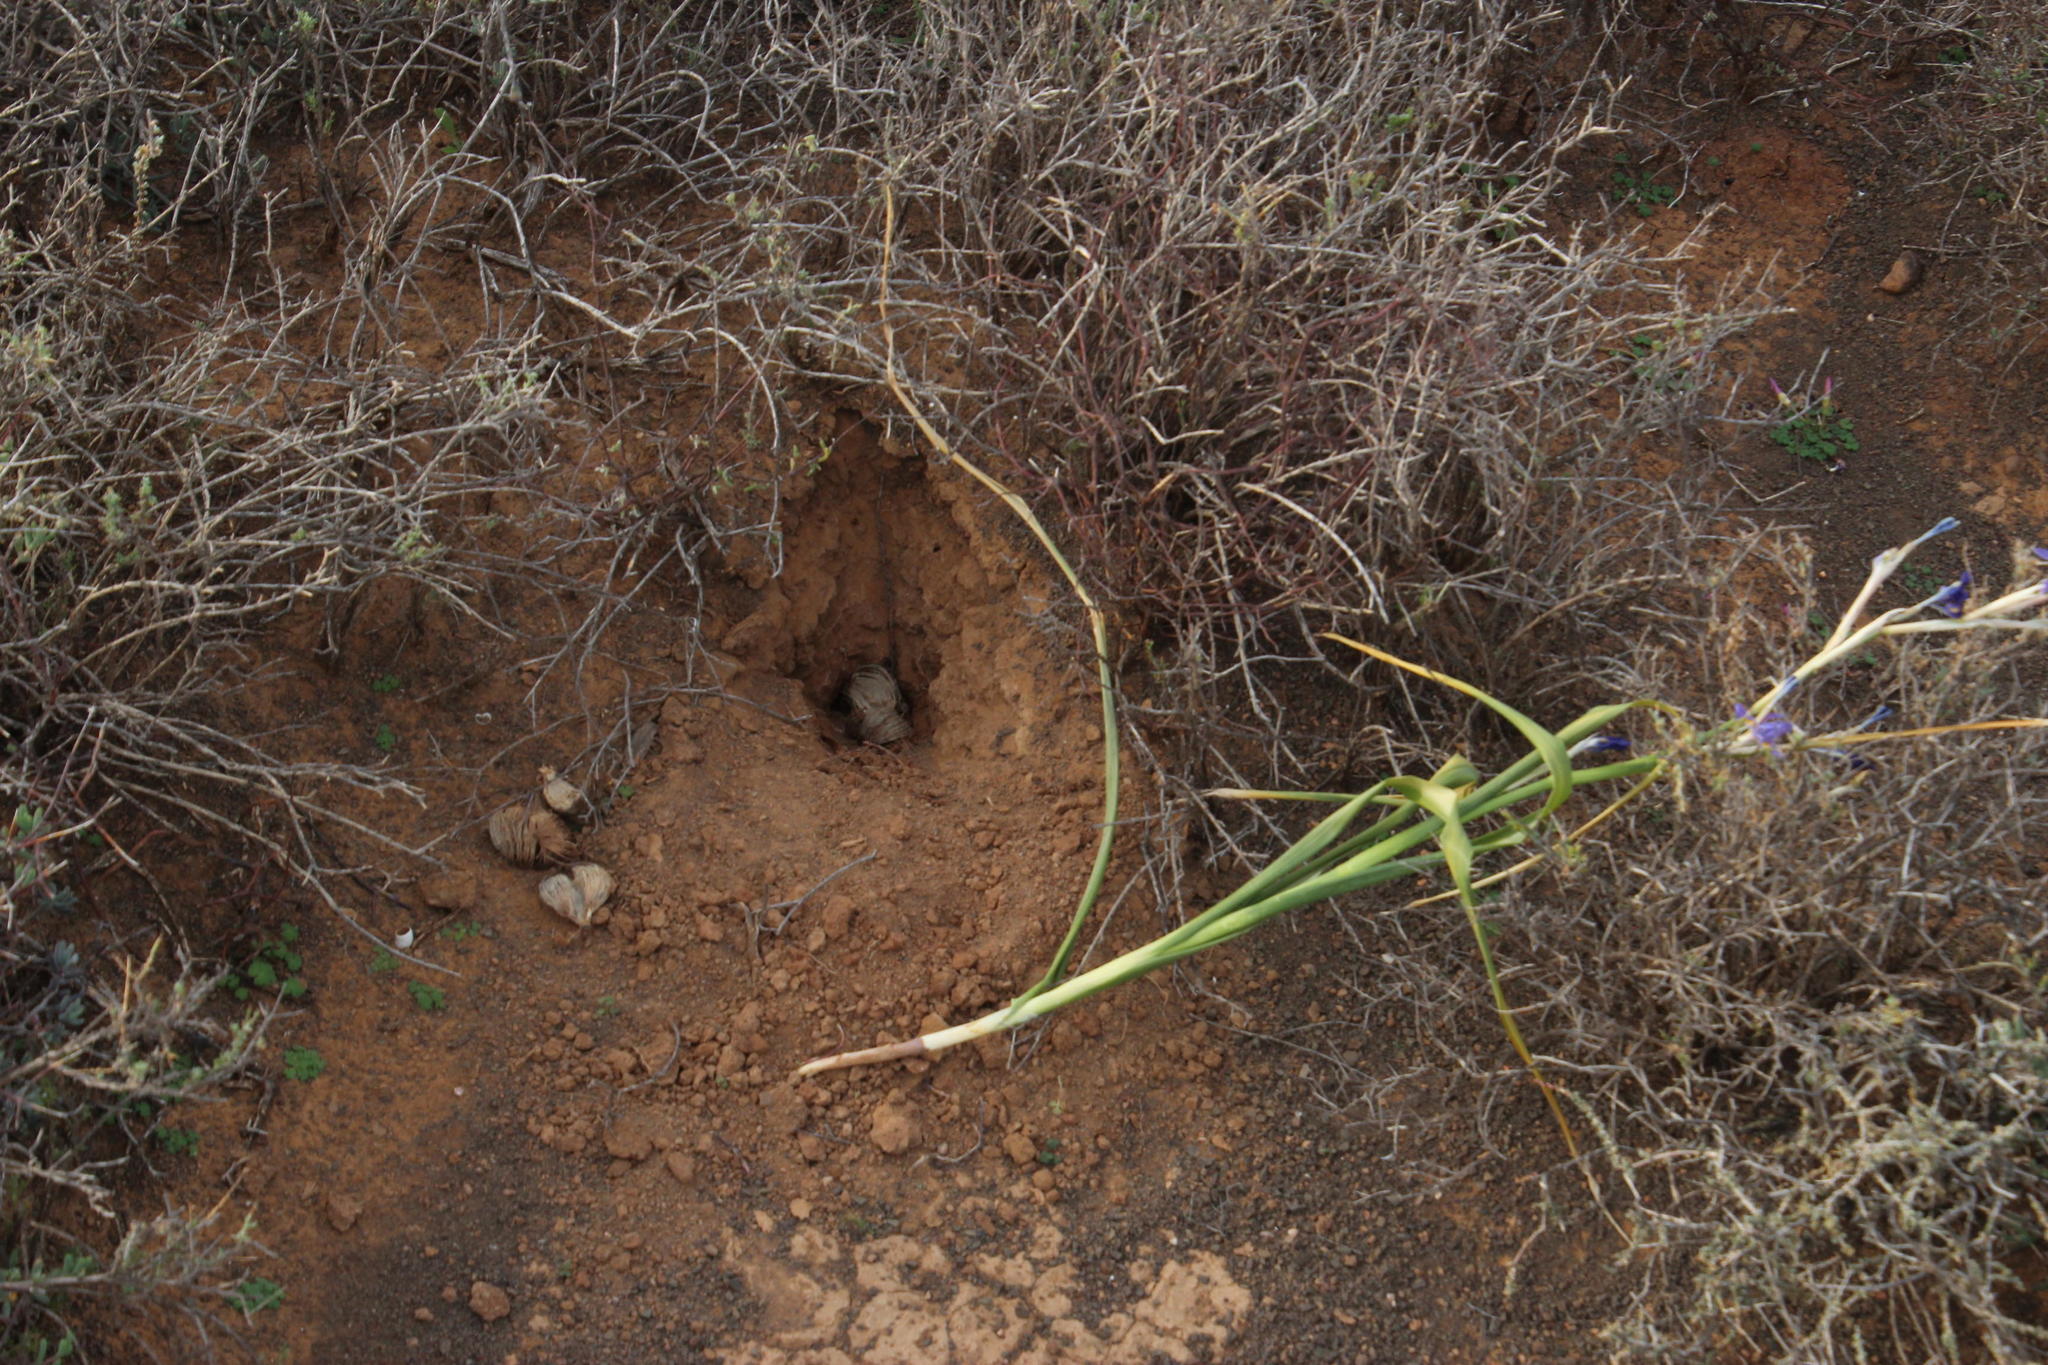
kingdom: Animalia
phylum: Chordata
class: Mammalia
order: Rodentia
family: Hystricidae
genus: Hystrix
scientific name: Hystrix africaeaustralis
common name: Cape porcupine
